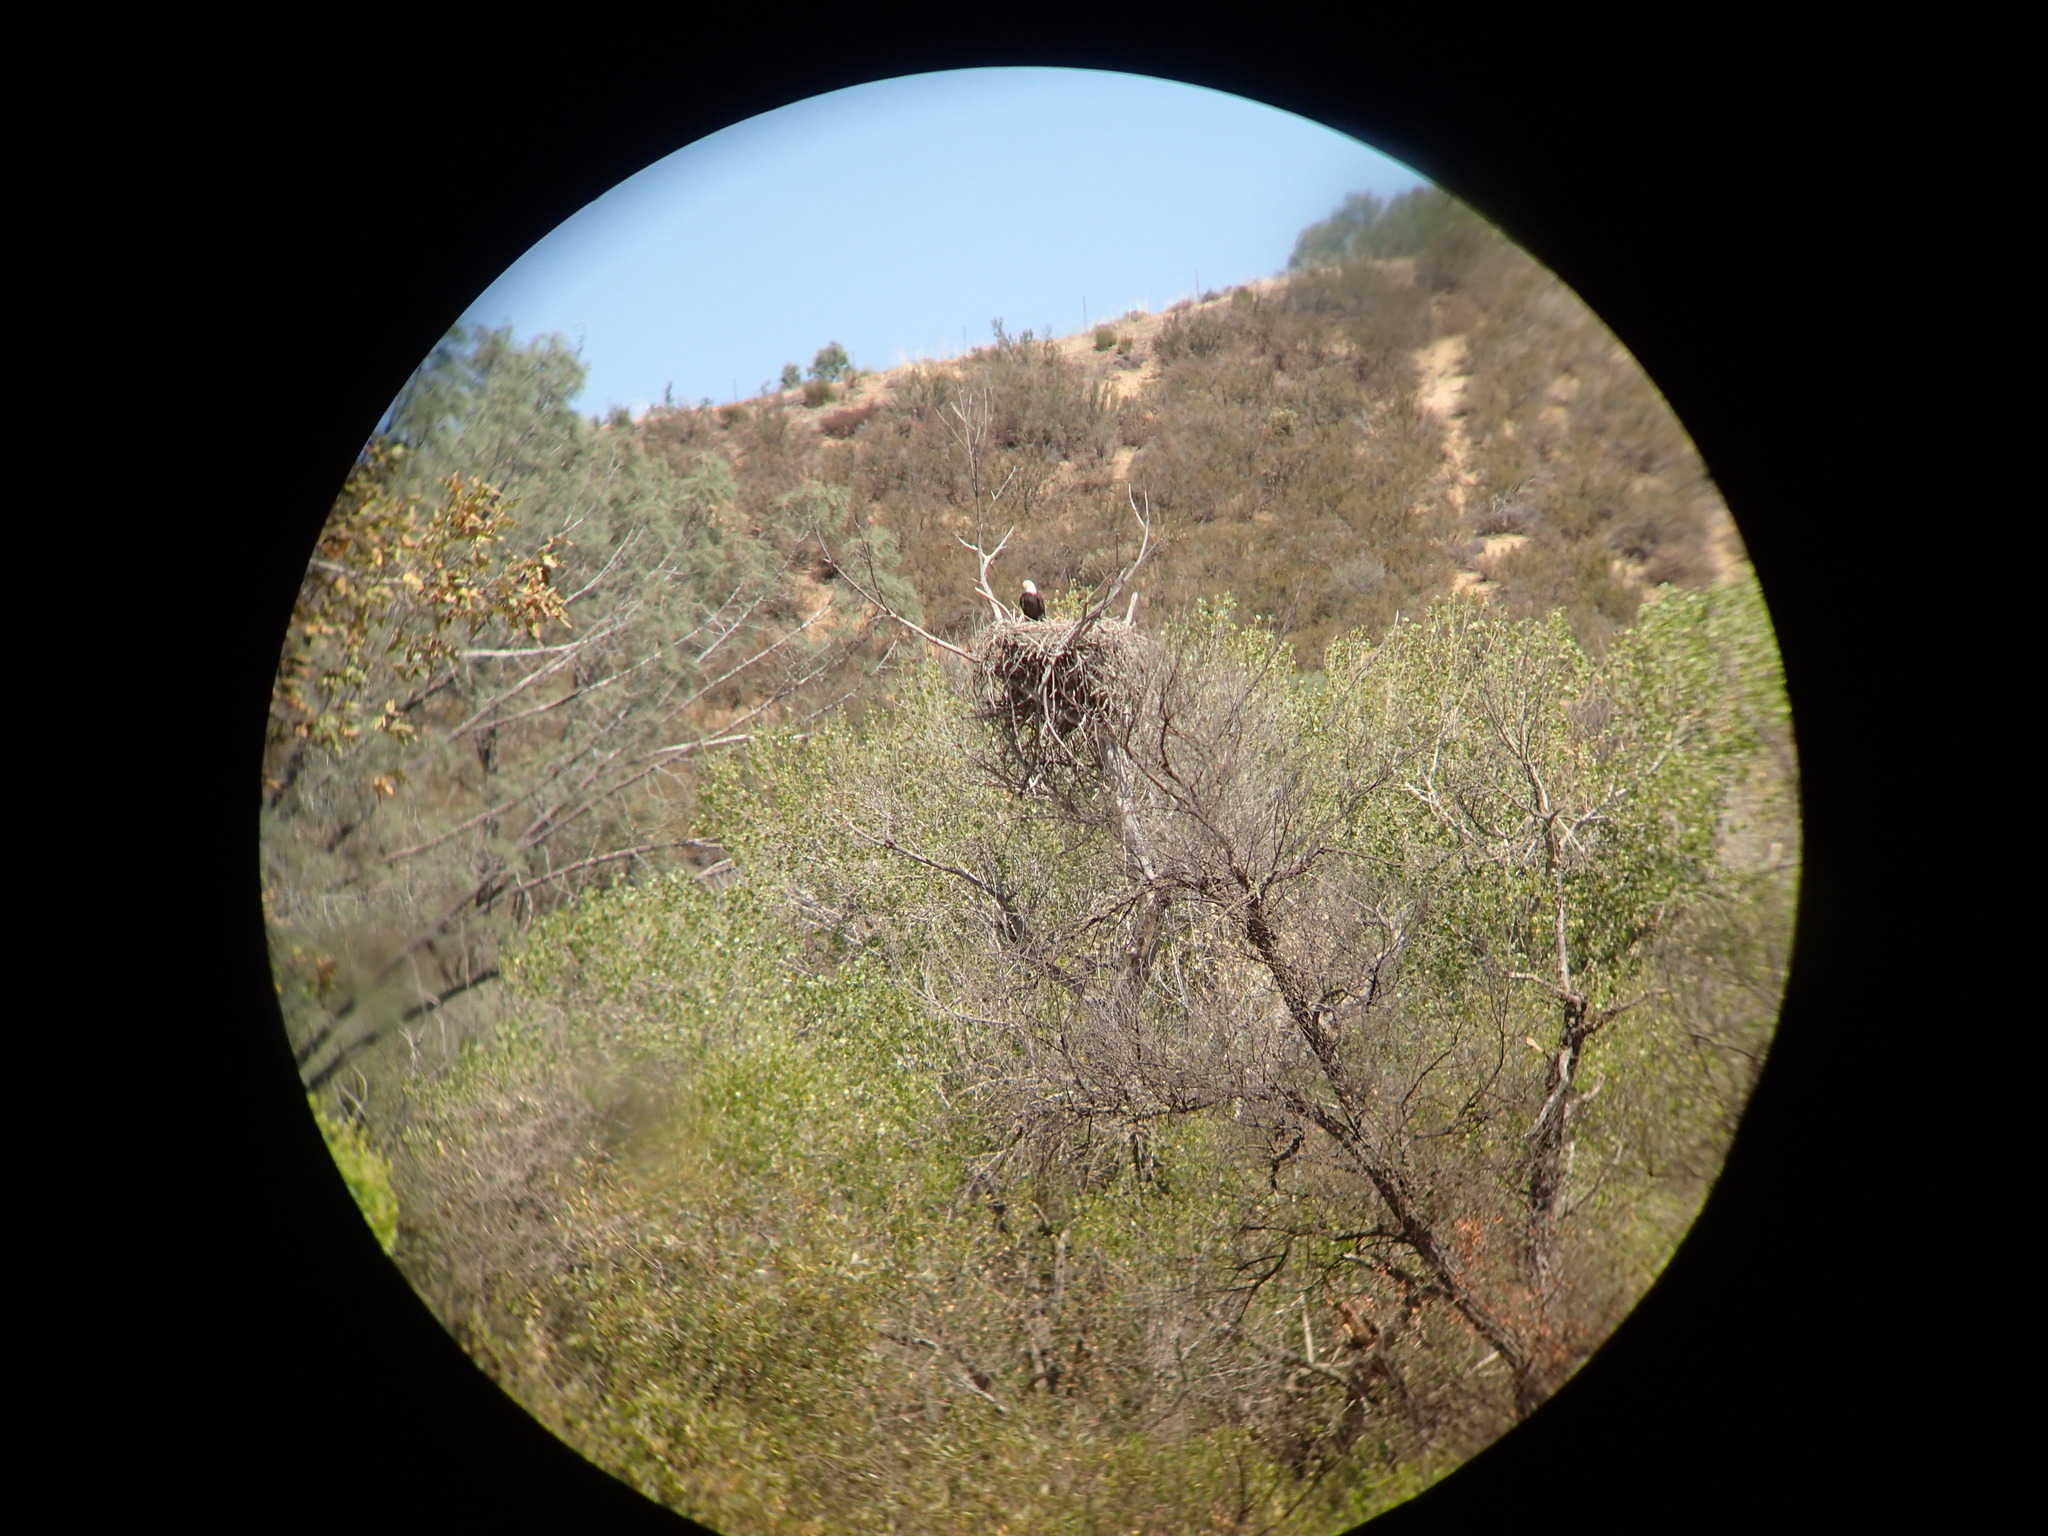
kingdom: Animalia
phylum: Chordata
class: Aves
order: Accipitriformes
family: Accipitridae
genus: Haliaeetus
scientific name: Haliaeetus leucocephalus
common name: Bald eagle
